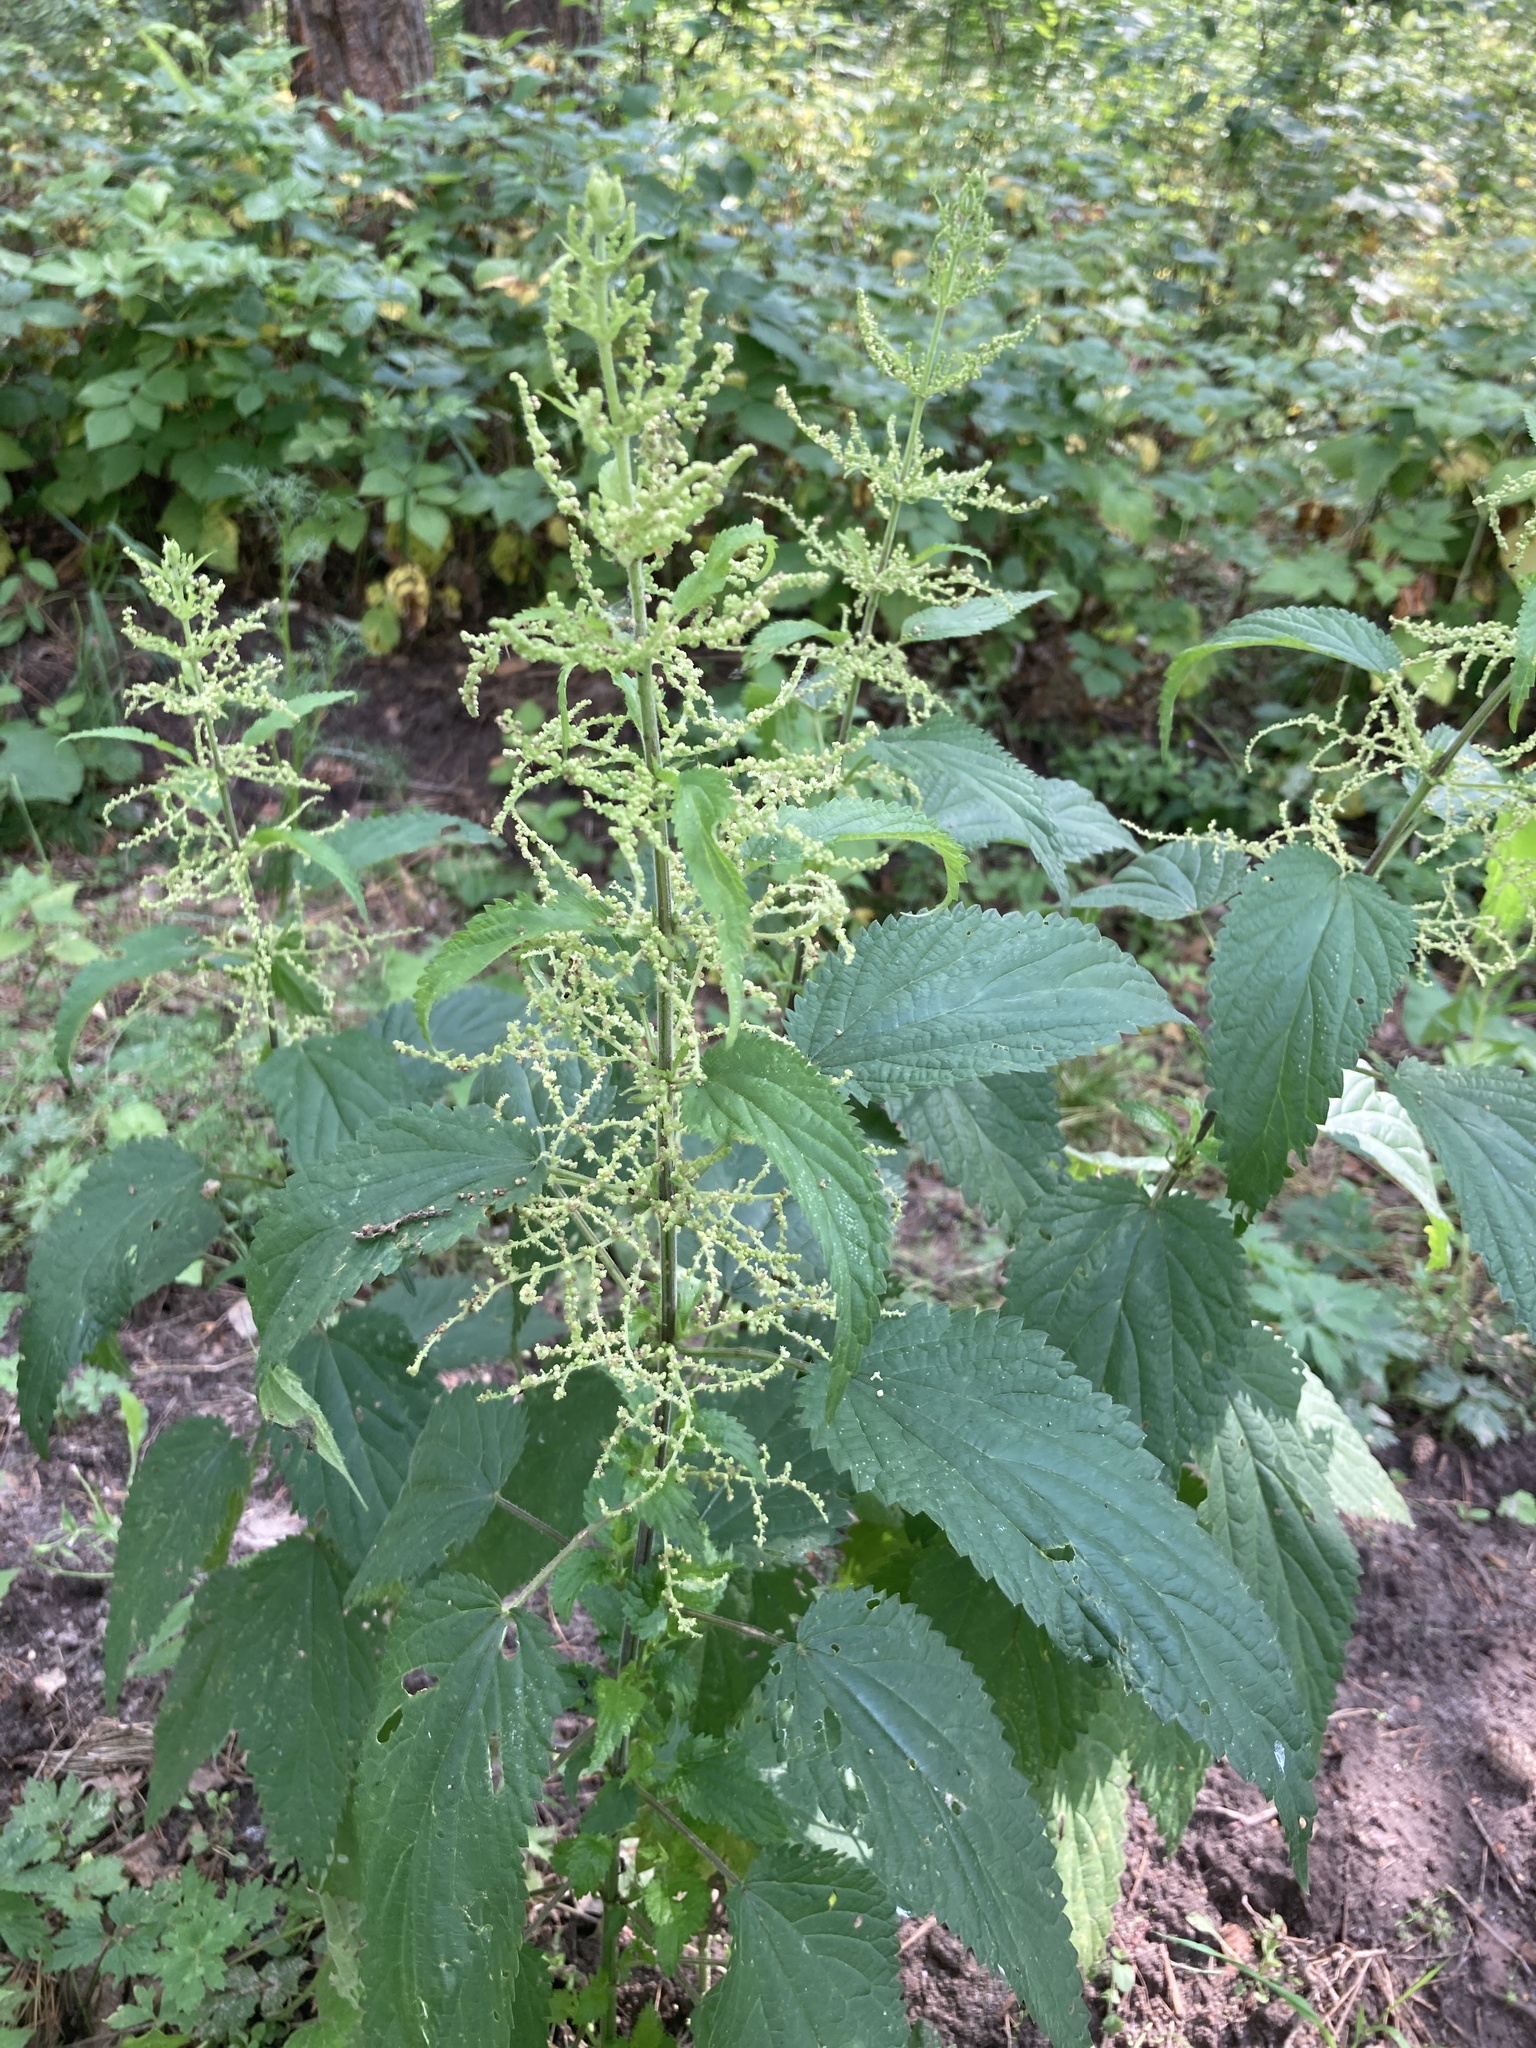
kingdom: Plantae
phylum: Tracheophyta
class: Magnoliopsida
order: Rosales
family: Urticaceae
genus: Urtica
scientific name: Urtica dioica
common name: Common nettle
